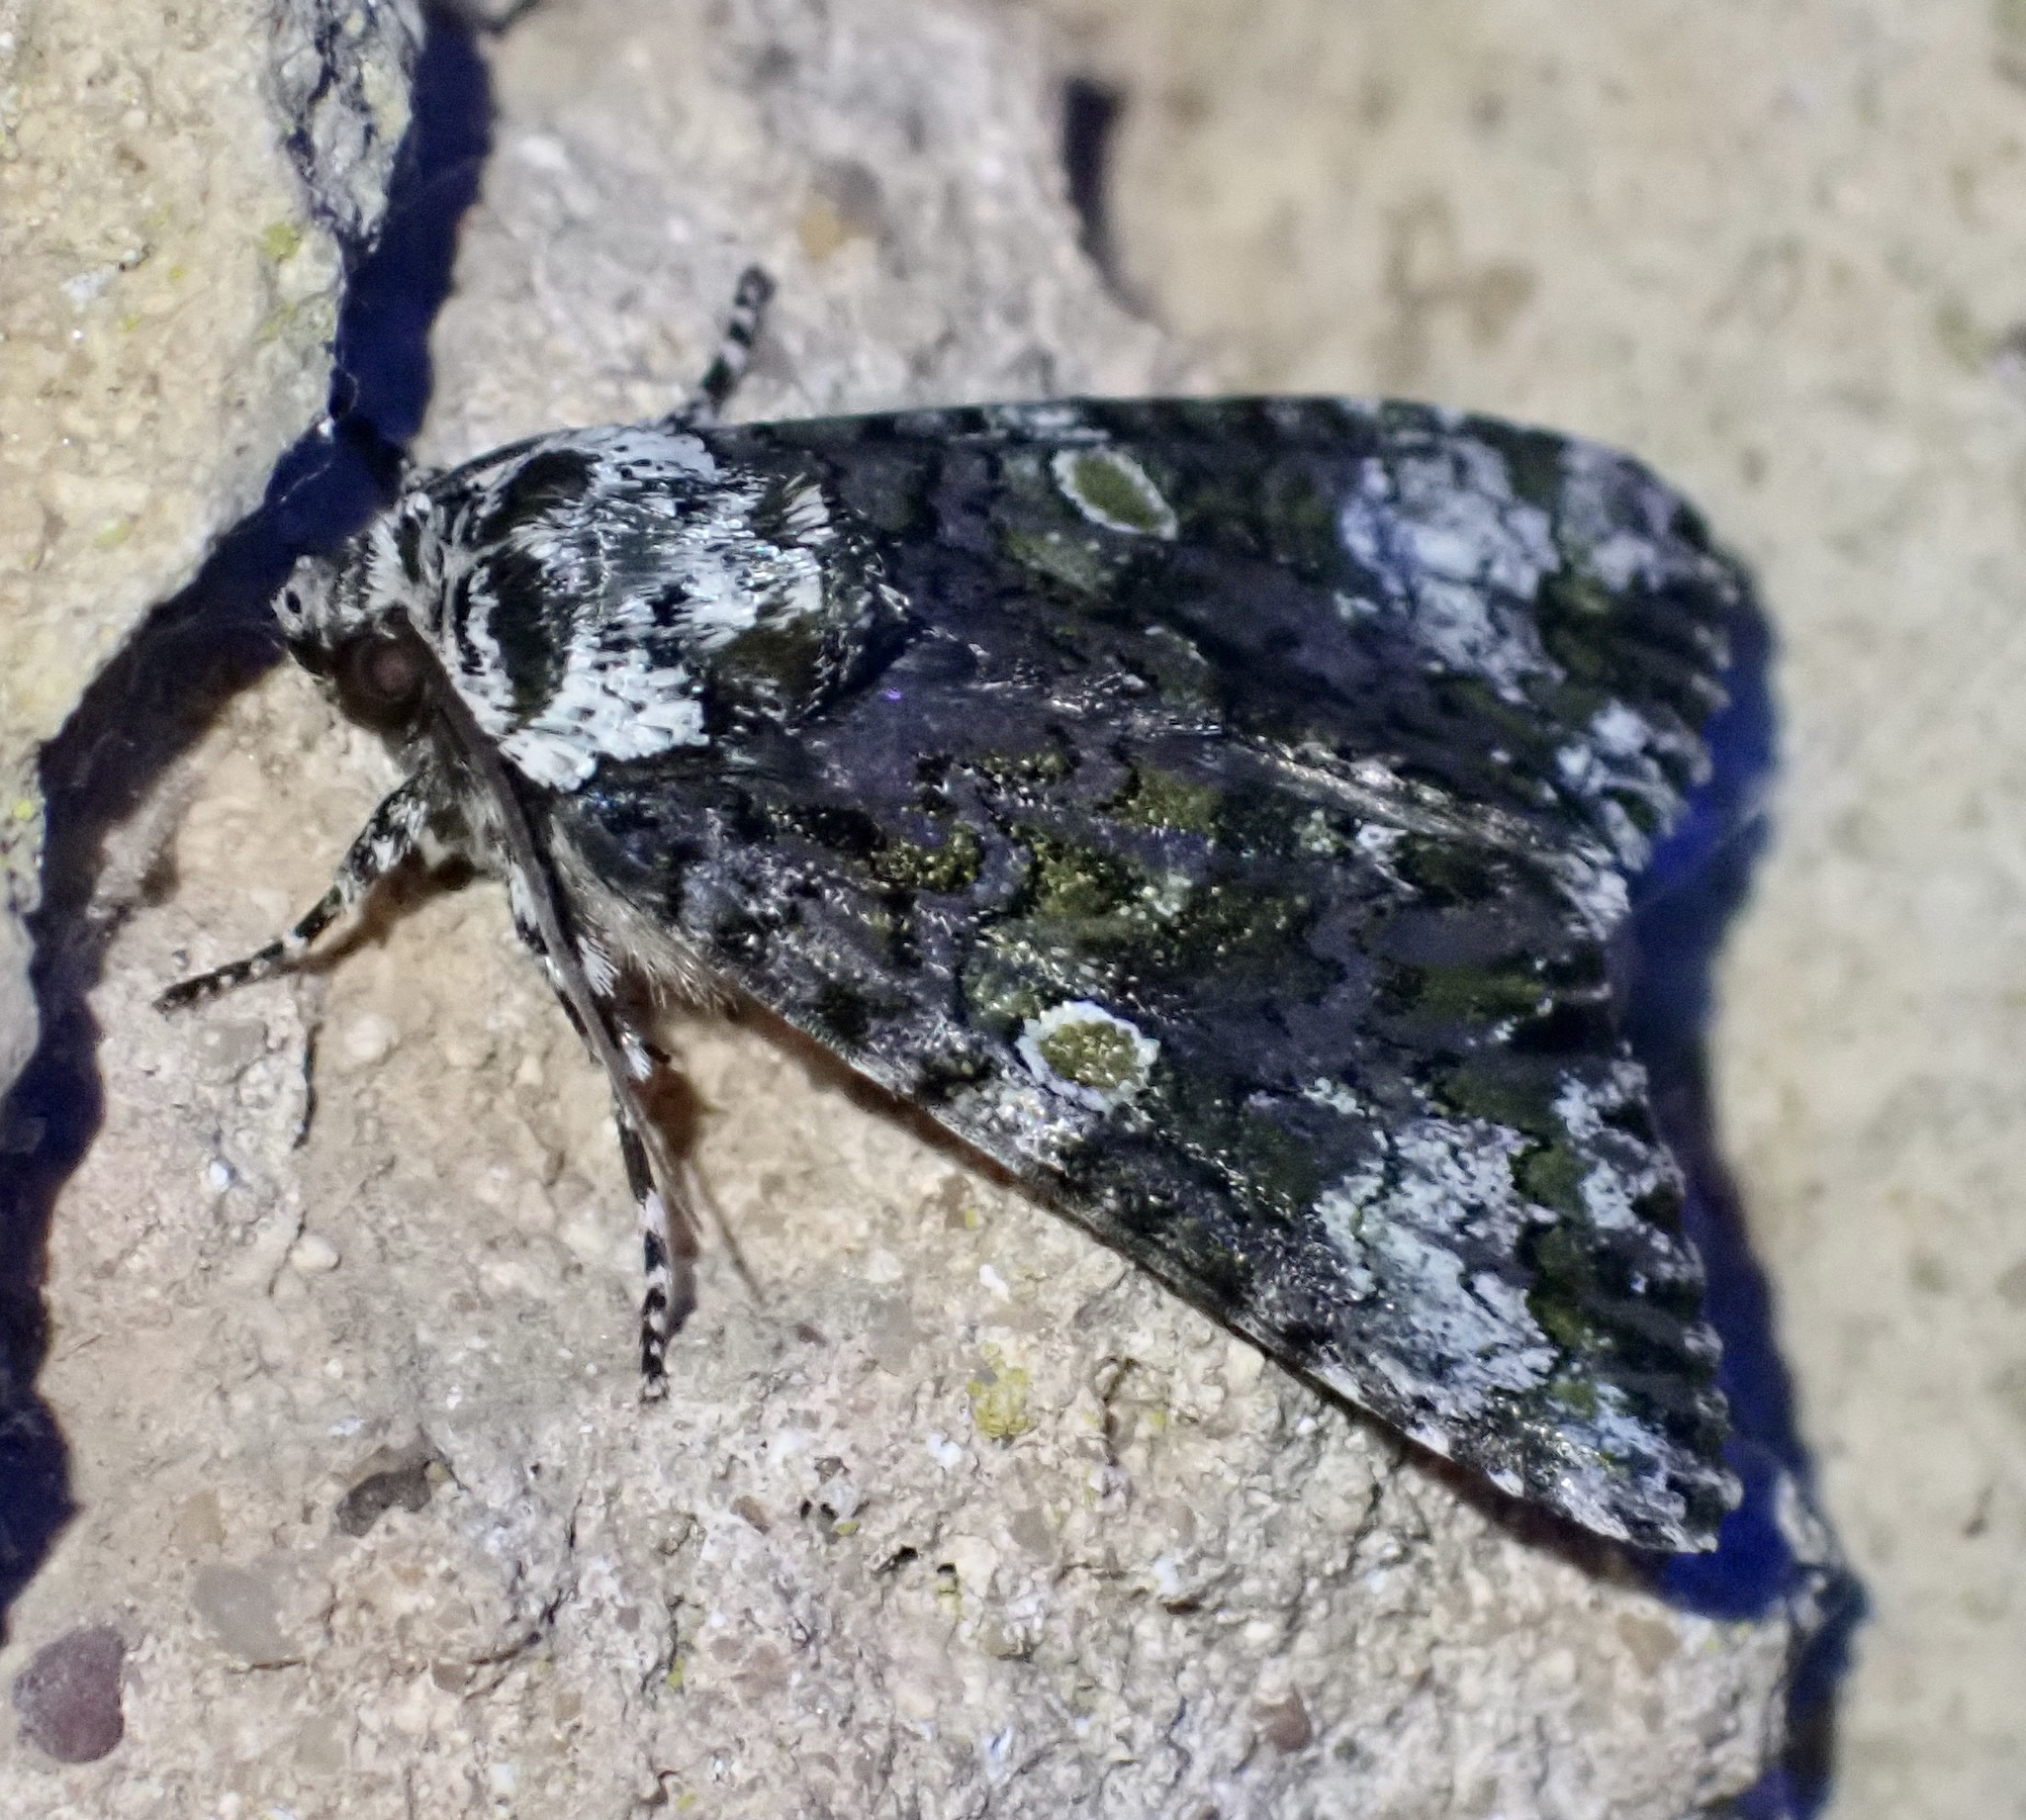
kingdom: Animalia
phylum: Arthropoda
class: Insecta
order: Lepidoptera
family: Noctuidae
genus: Craniophora
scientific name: Craniophora ligustri
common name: Coronet
